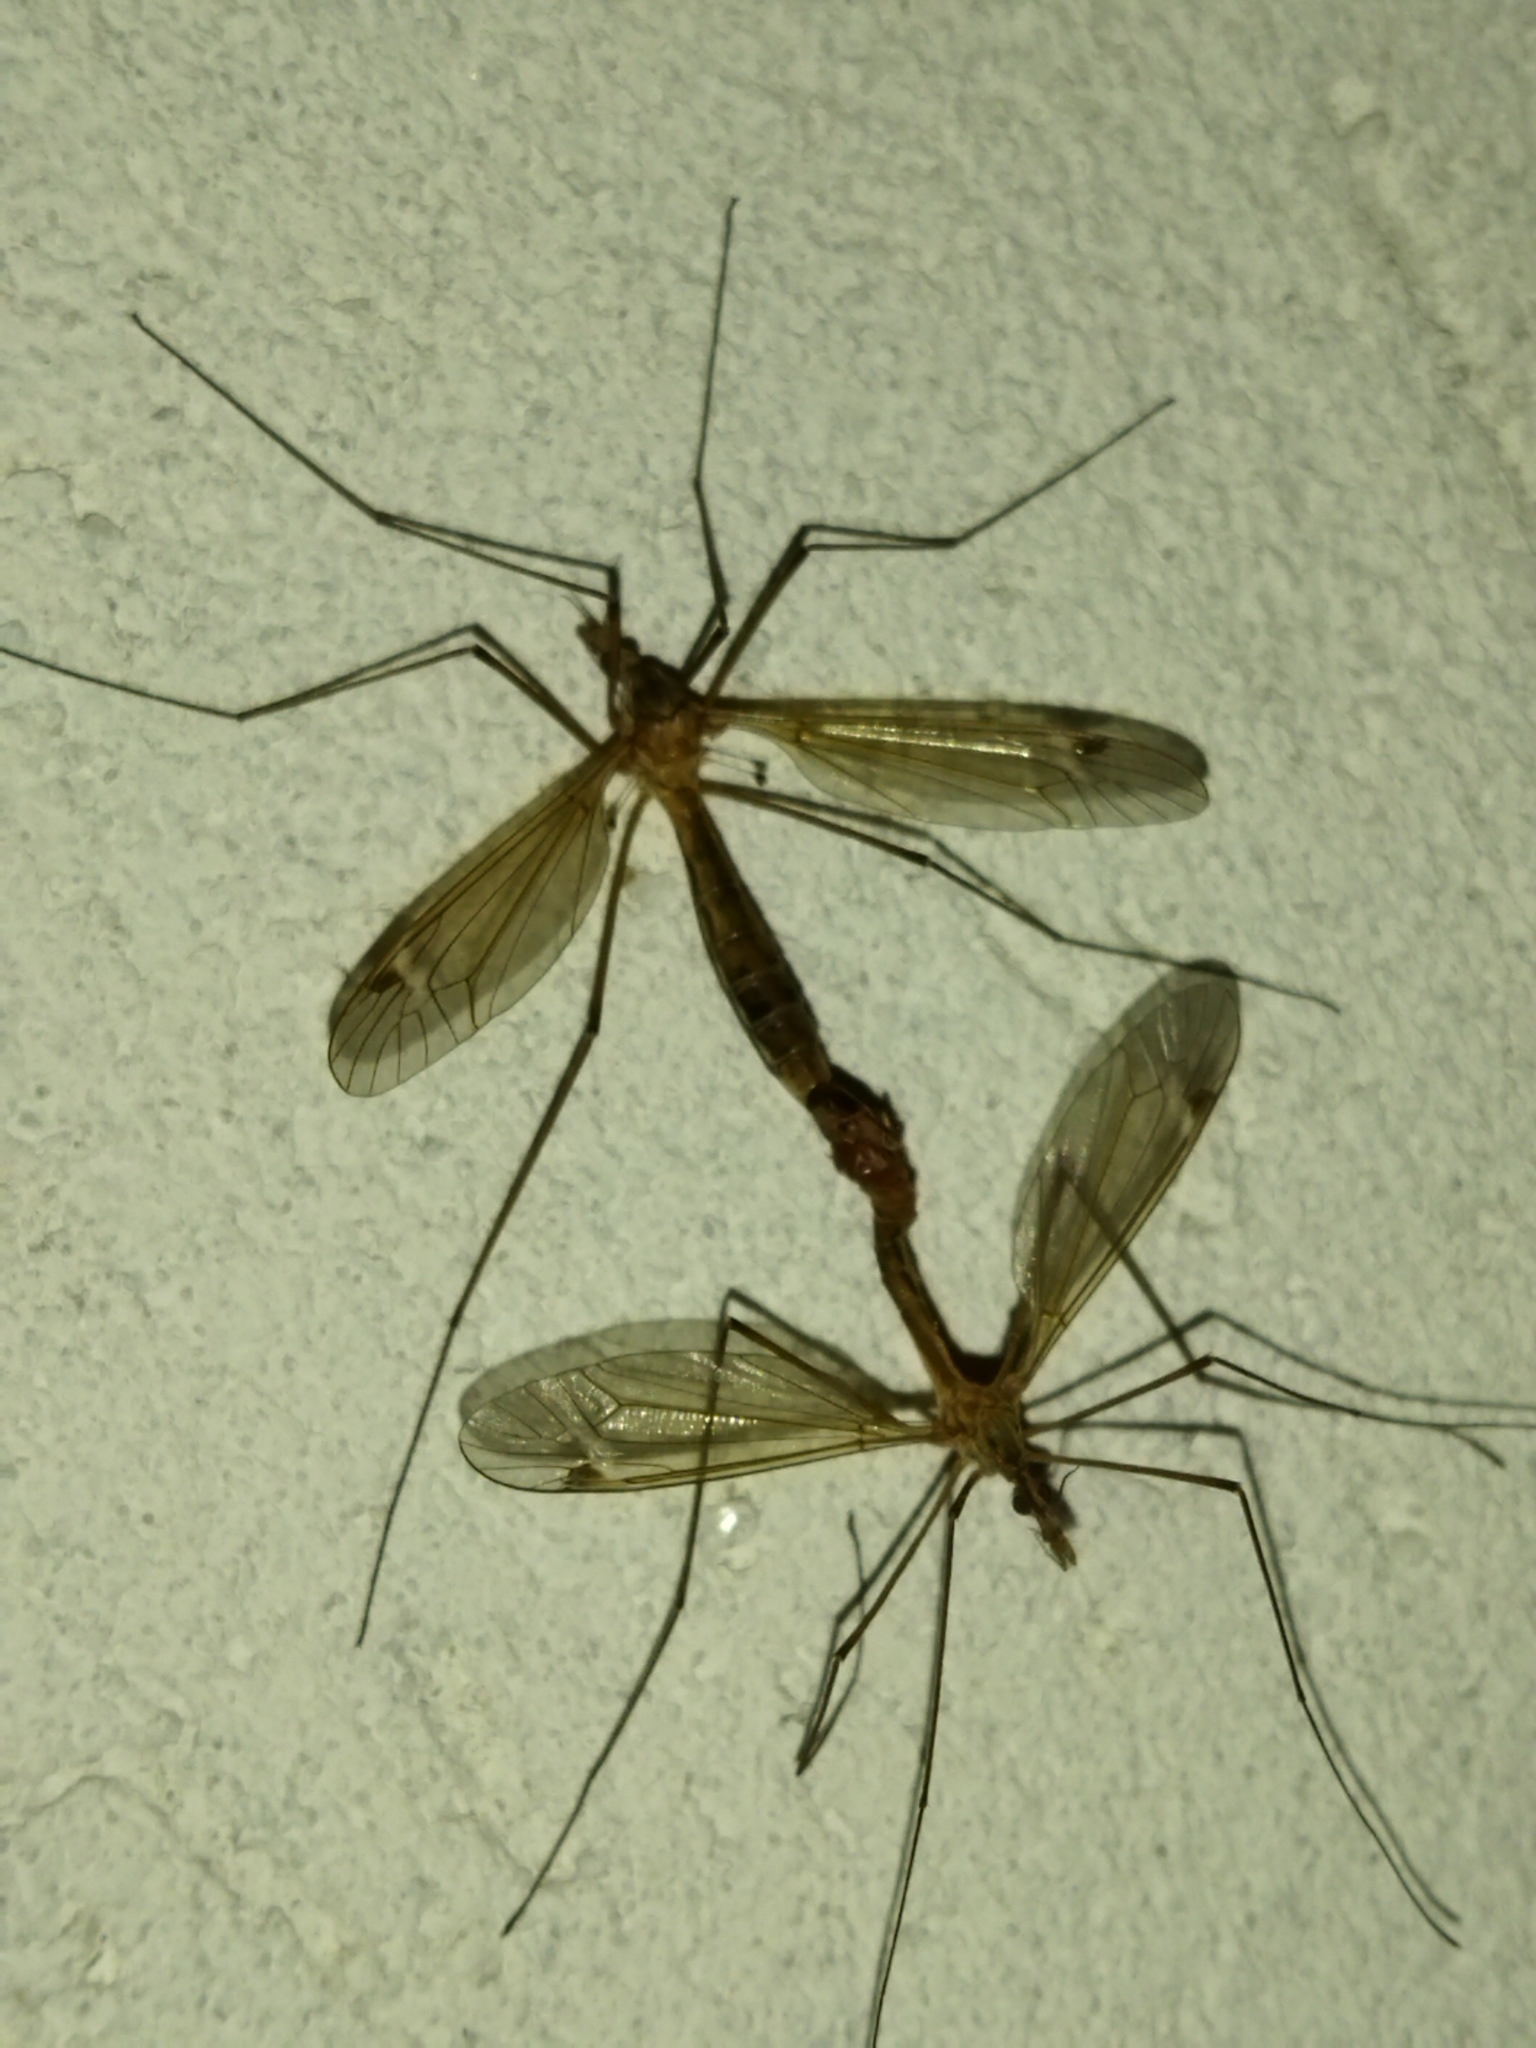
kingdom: Animalia
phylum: Arthropoda
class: Insecta
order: Diptera
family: Tipulidae
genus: Tipula
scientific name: Tipula lunata
